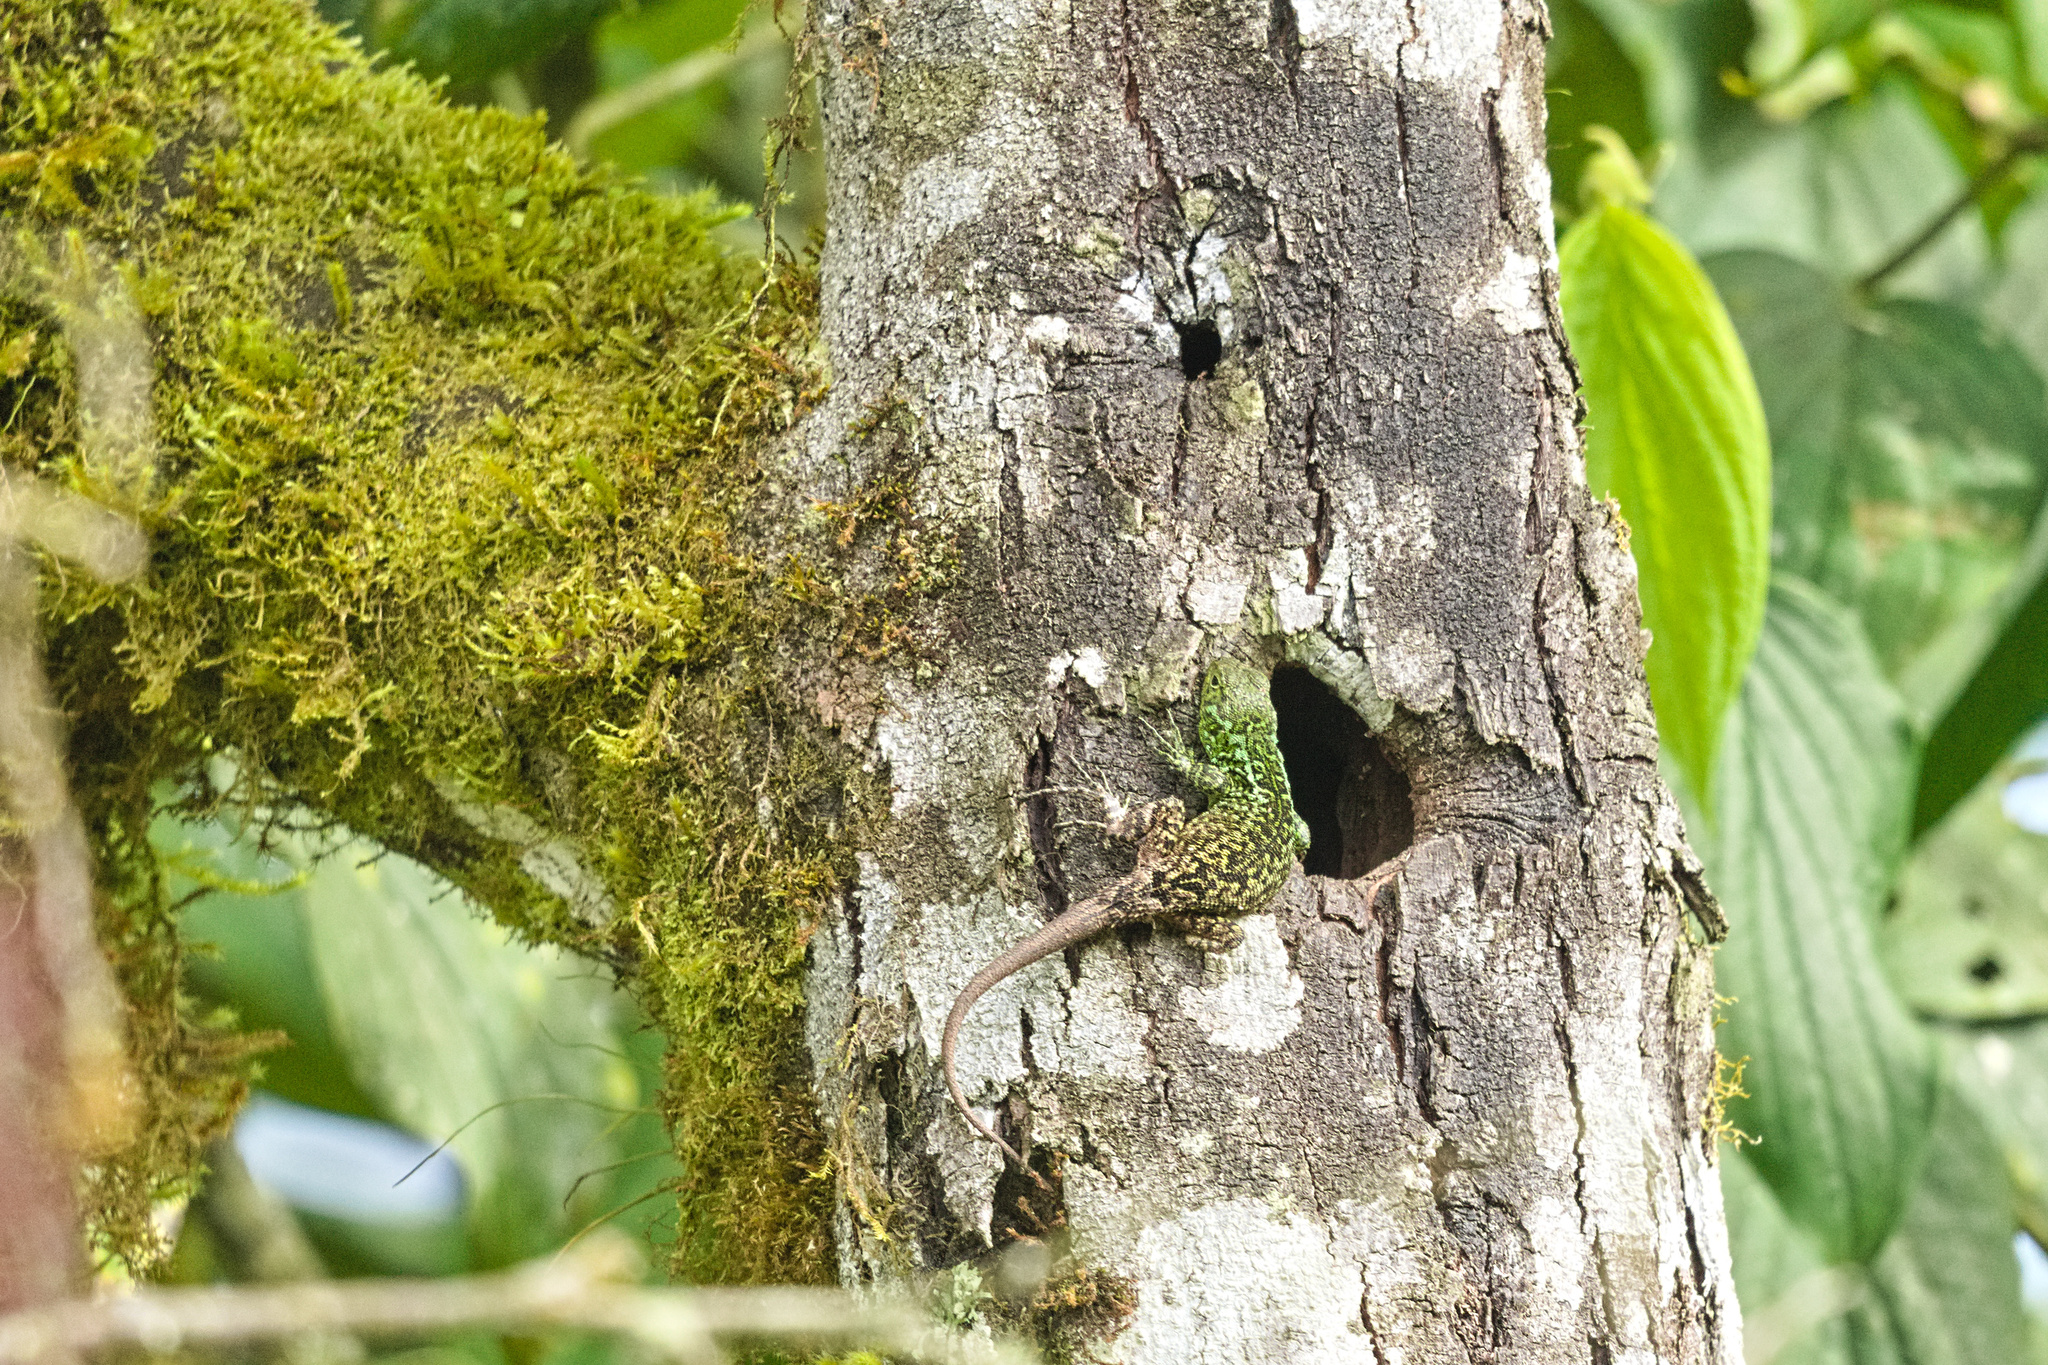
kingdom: Animalia
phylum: Chordata
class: Squamata
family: Tropiduridae
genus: Stenocercus
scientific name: Stenocercus varius
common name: Keeled whorltail iguana
